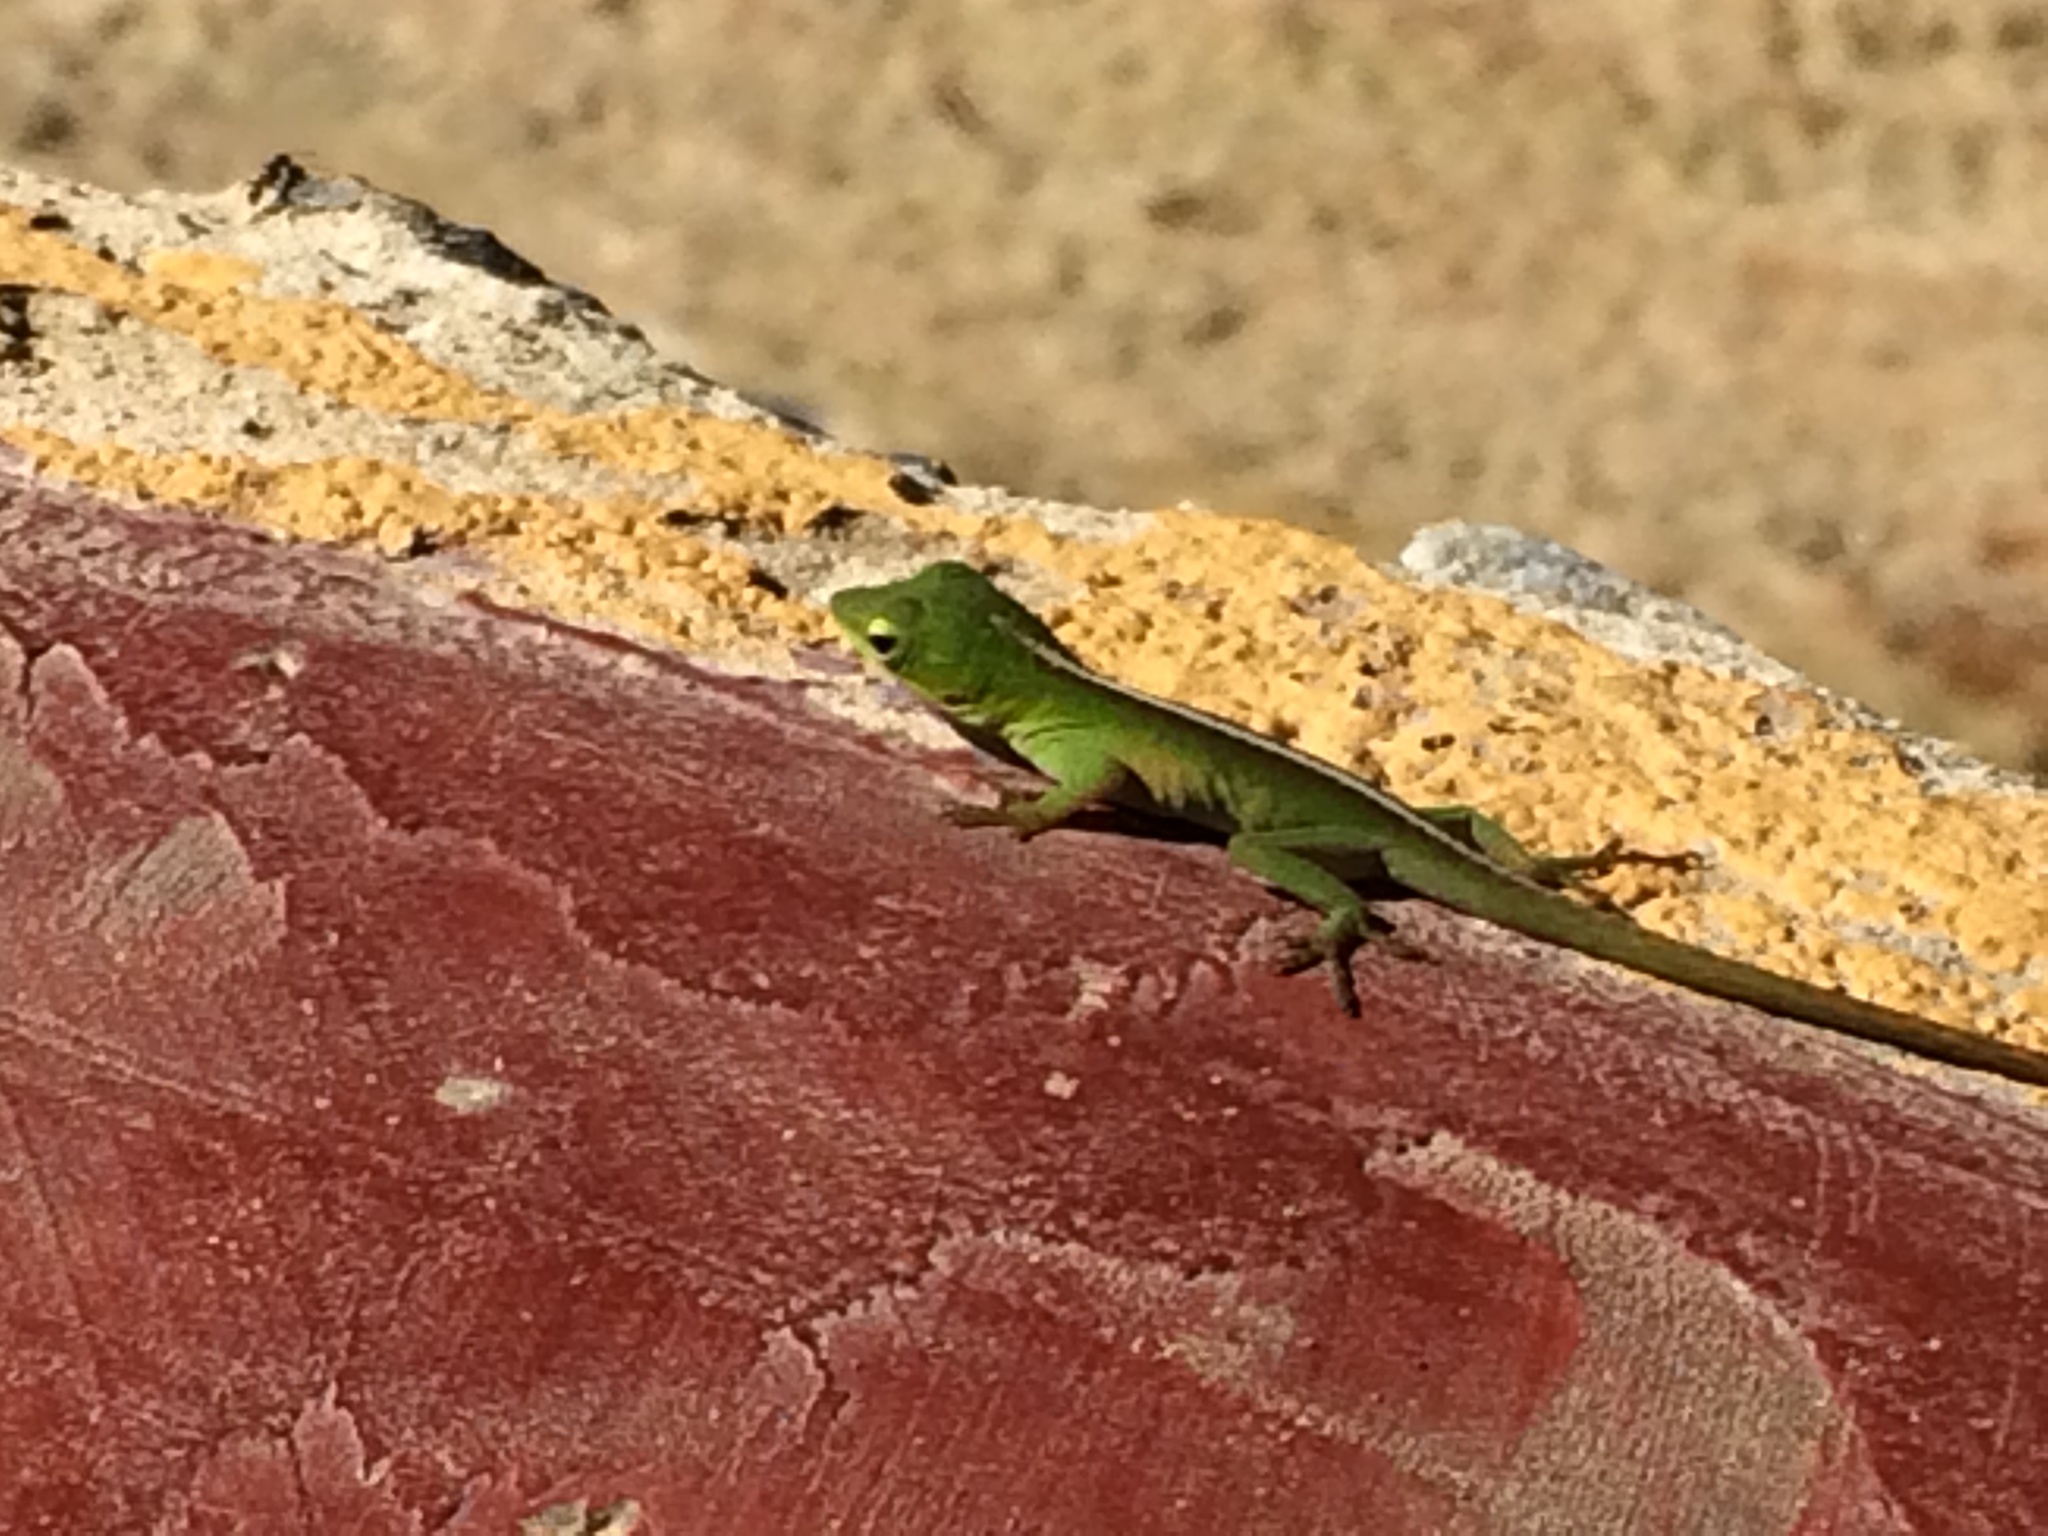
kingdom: Animalia
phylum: Chordata
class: Squamata
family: Dactyloidae
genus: Anolis
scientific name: Anolis porcatus
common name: Cuban green anole
